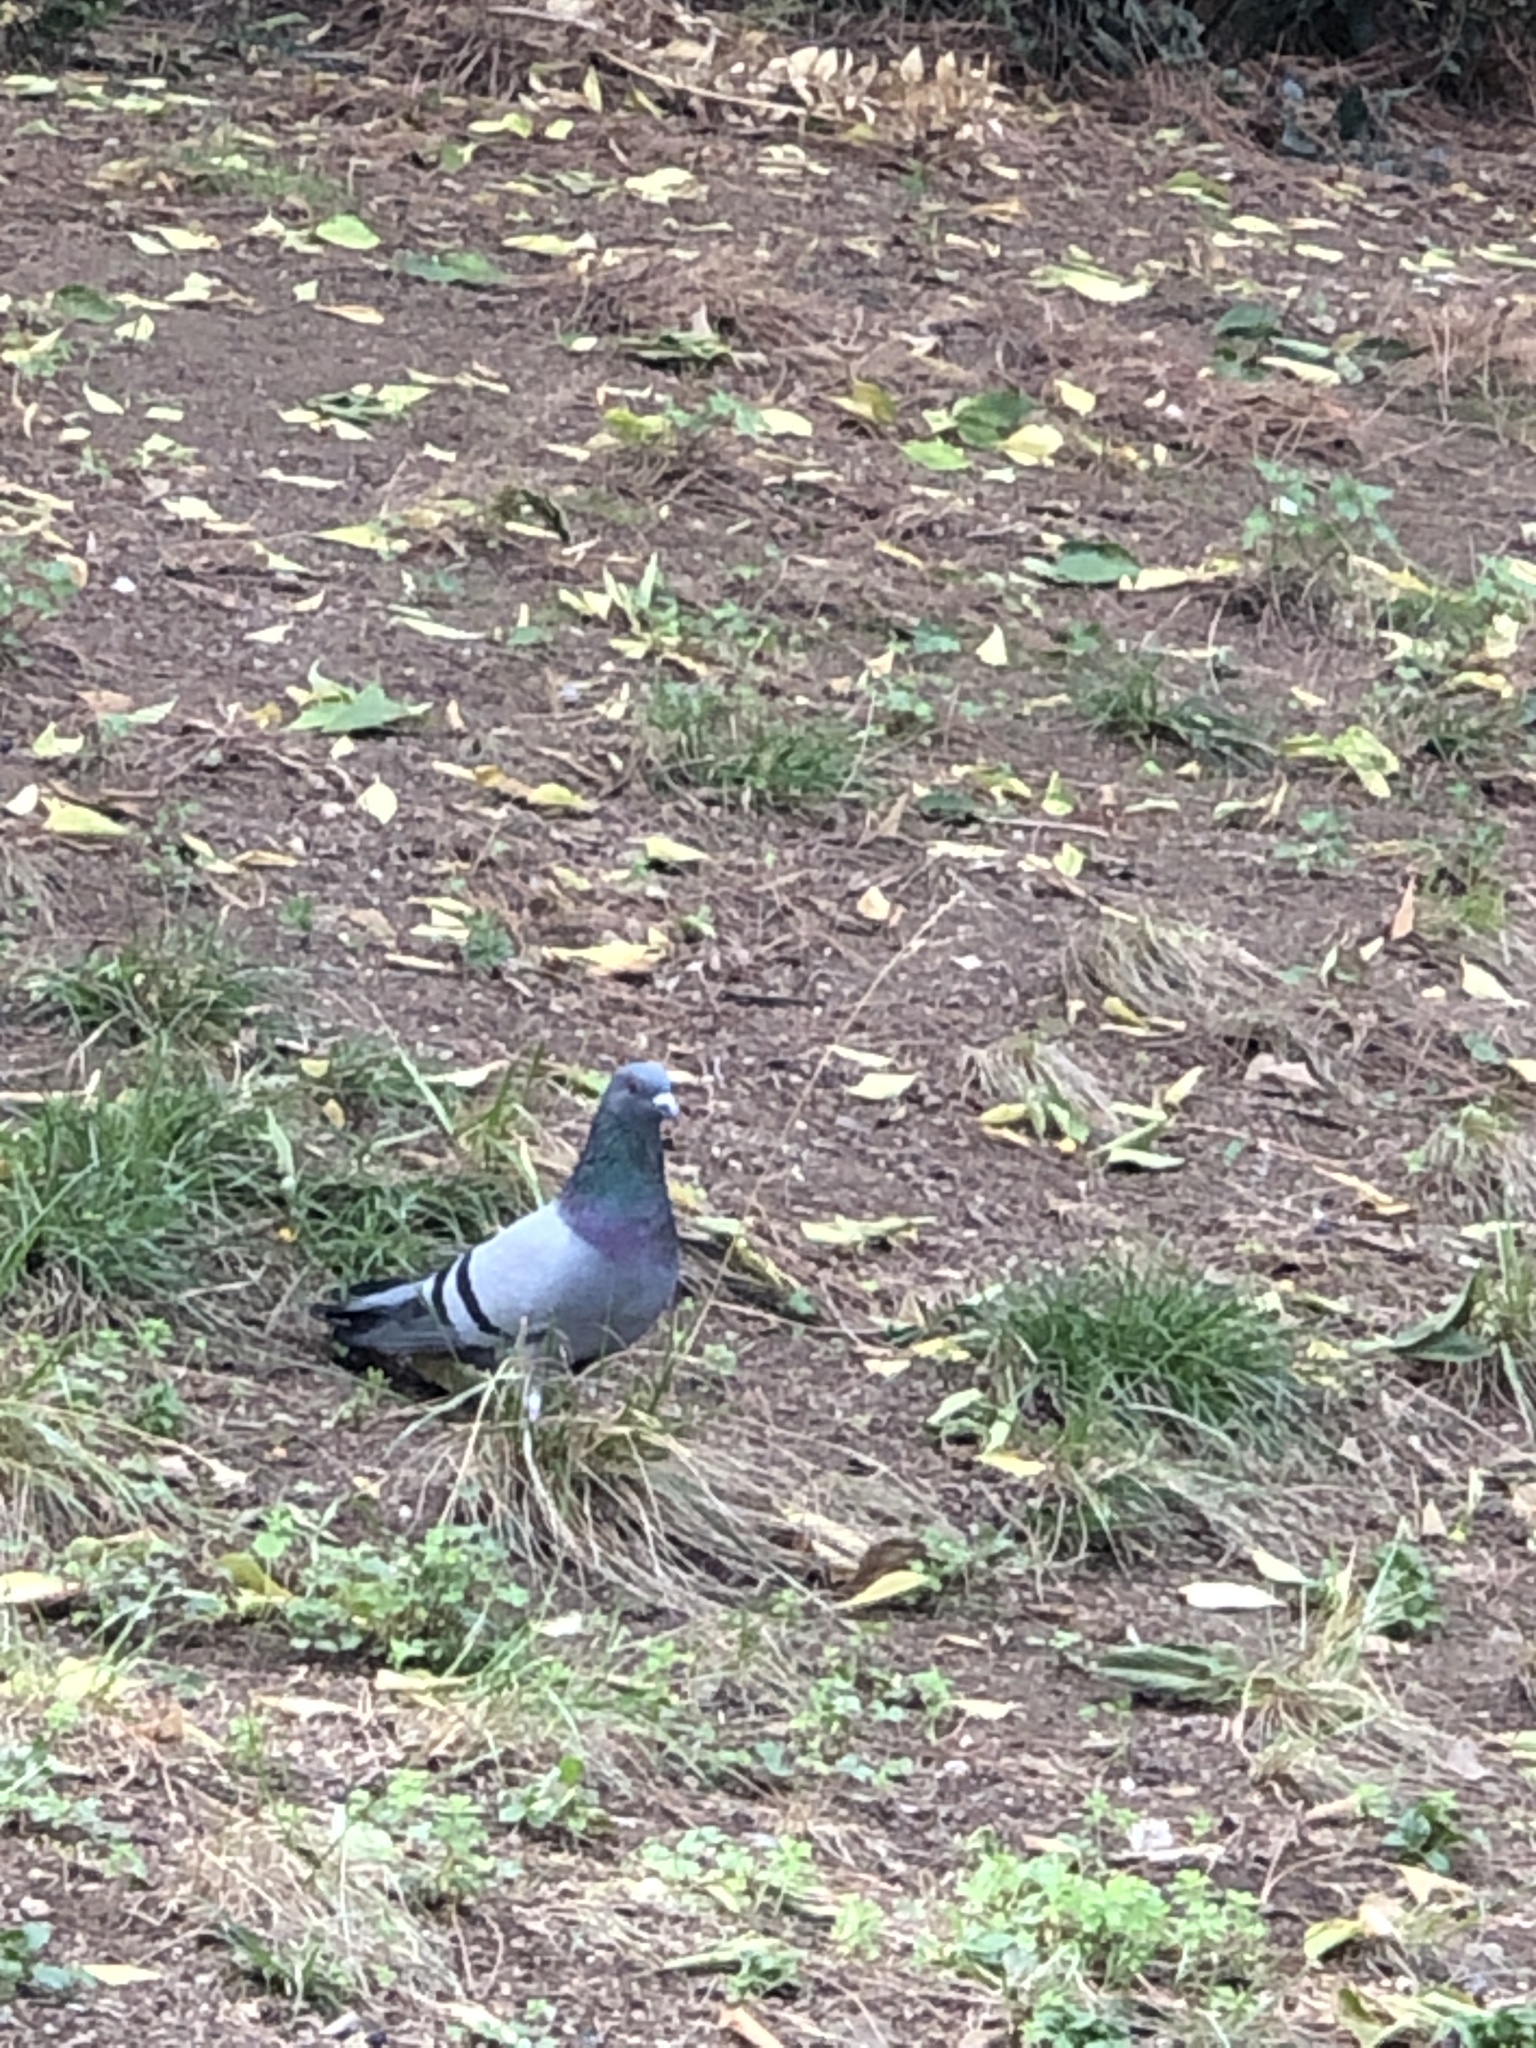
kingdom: Animalia
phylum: Chordata
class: Aves
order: Columbiformes
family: Columbidae
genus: Columba
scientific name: Columba livia
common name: Rock pigeon
